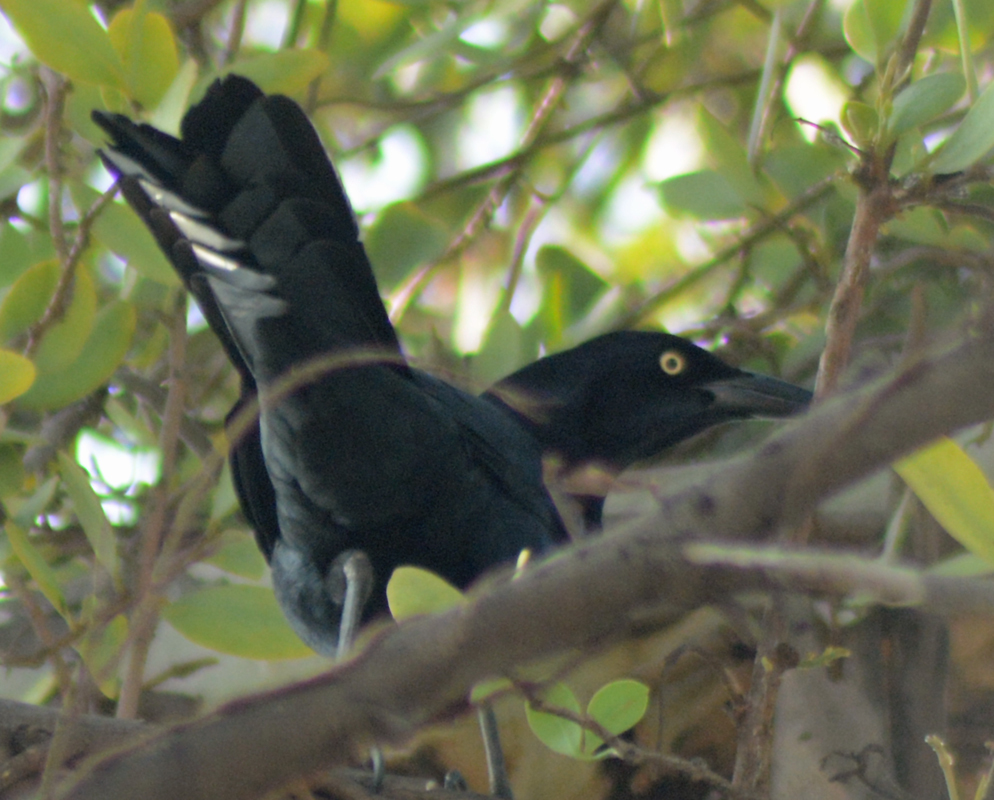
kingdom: Animalia
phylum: Chordata
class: Aves
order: Passeriformes
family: Icteridae
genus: Quiscalus
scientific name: Quiscalus mexicanus
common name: Great-tailed grackle
